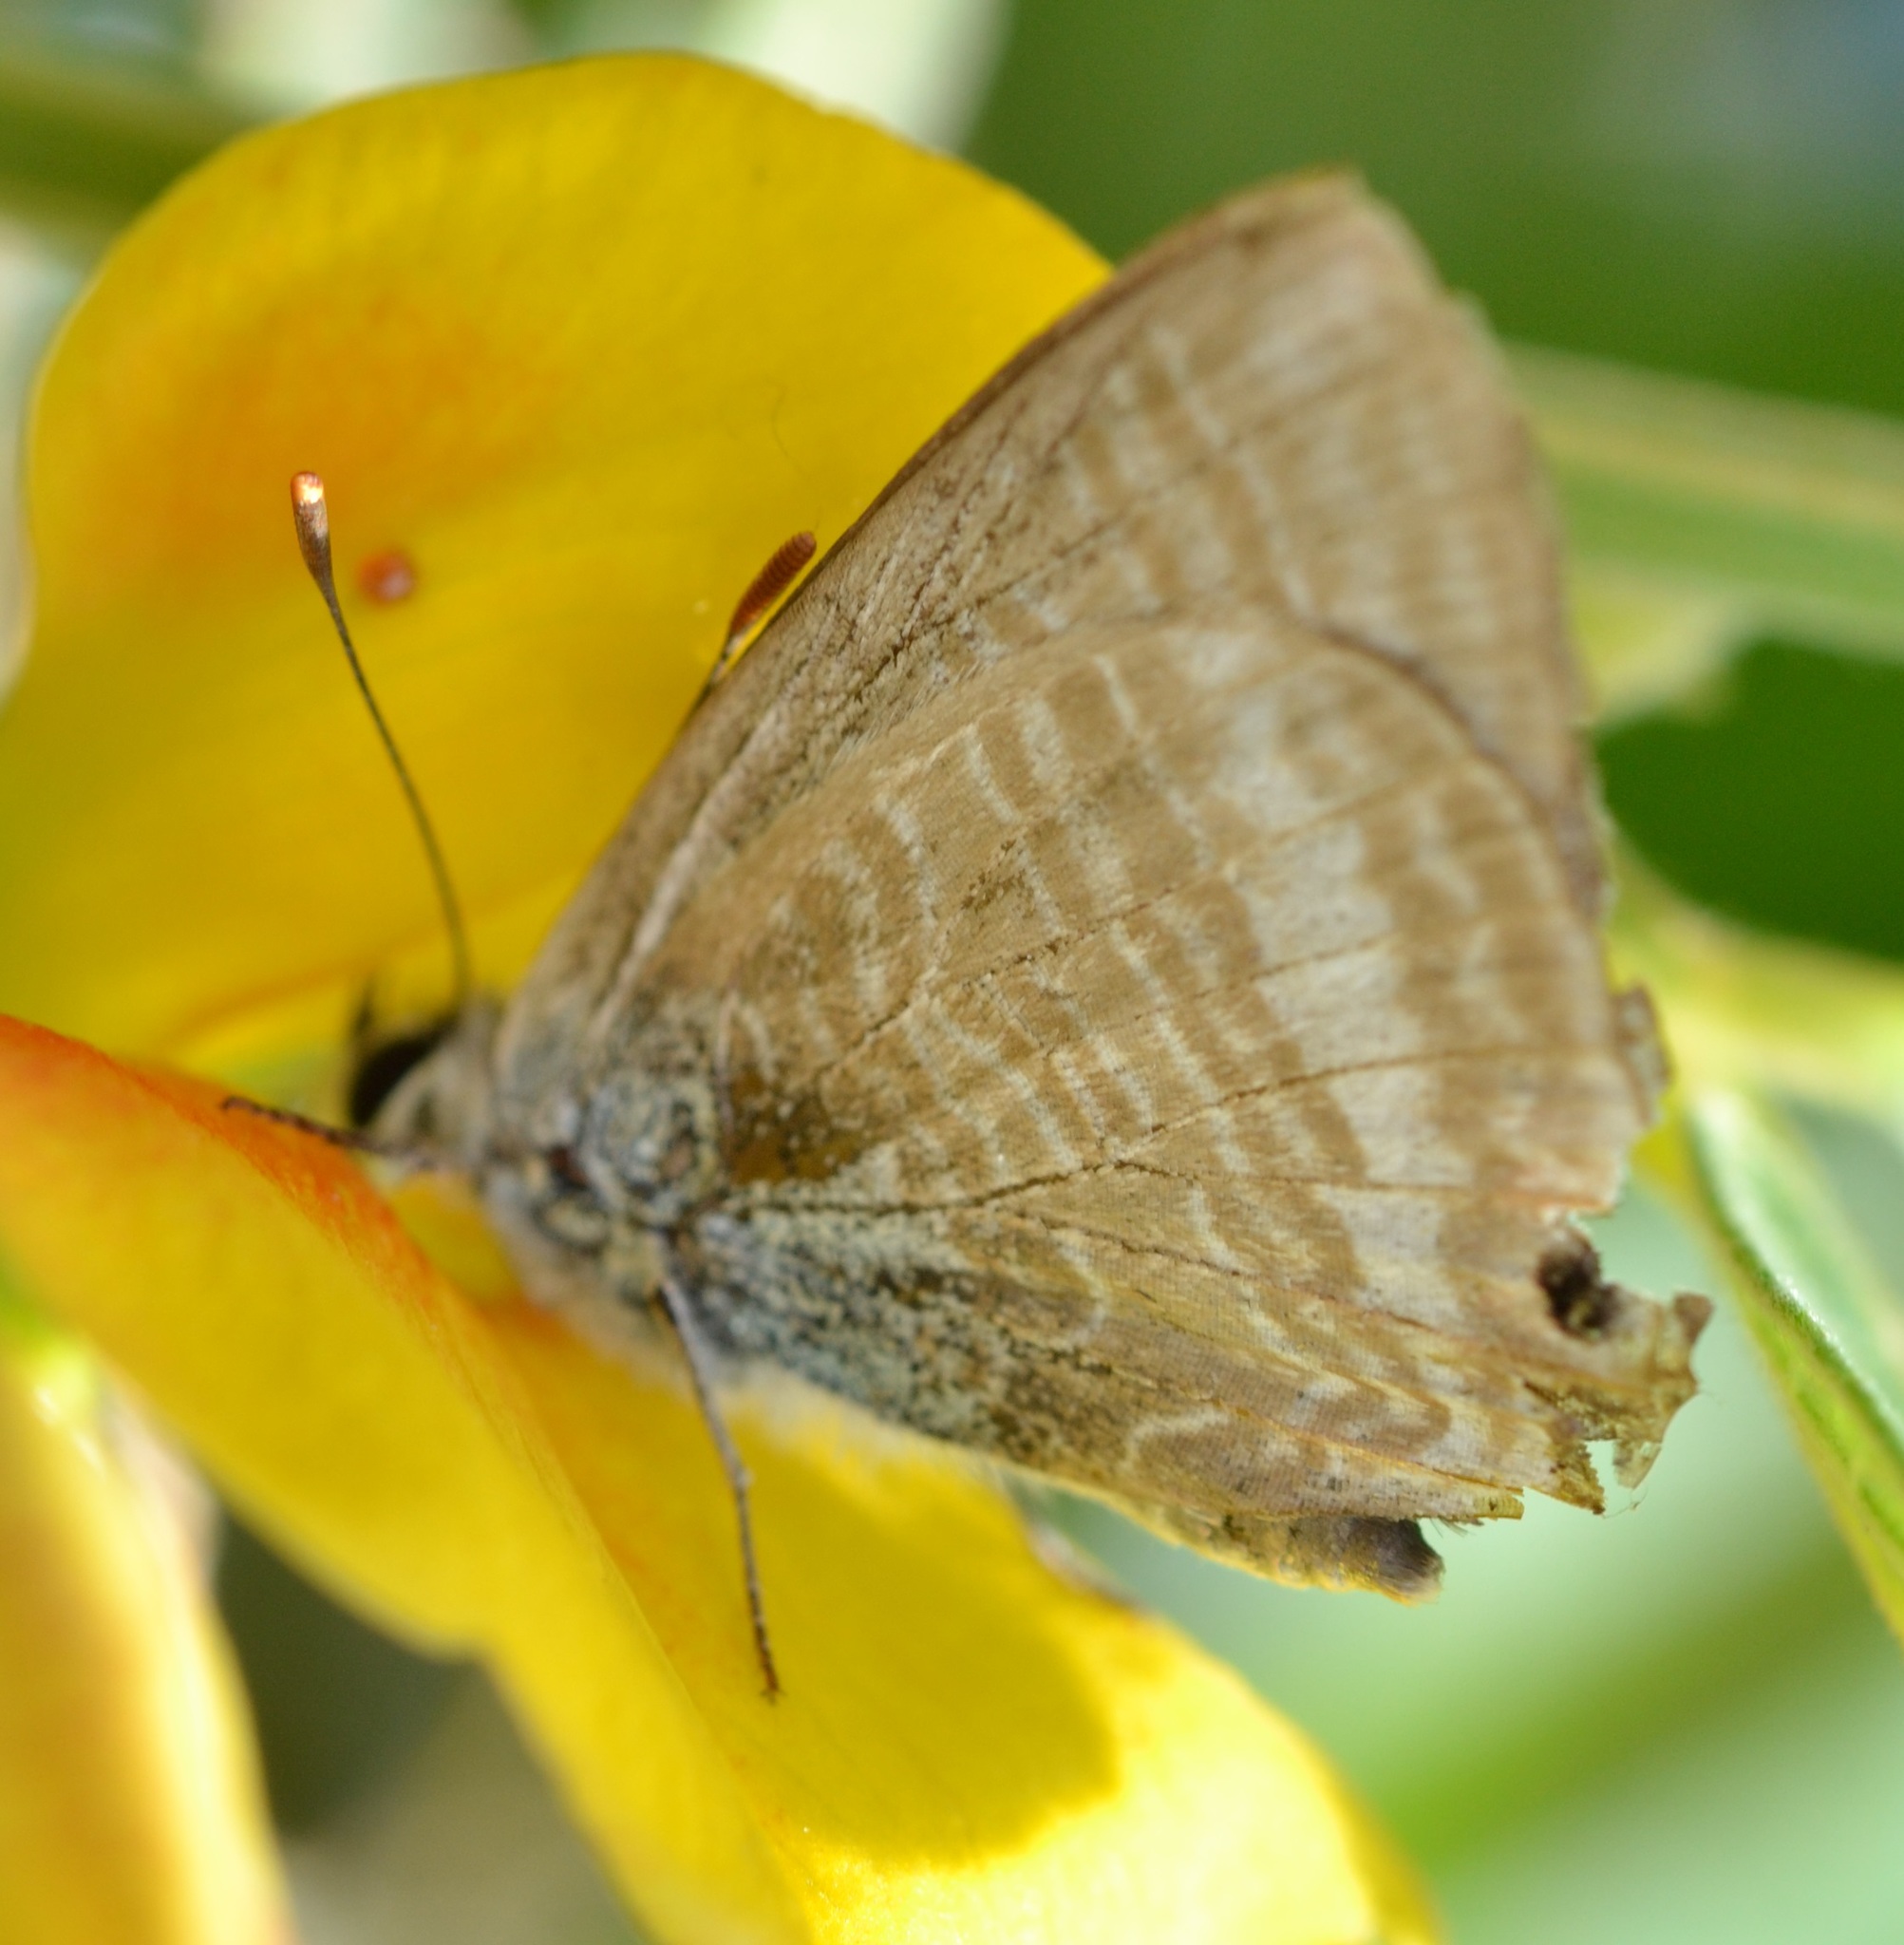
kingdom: Animalia
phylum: Arthropoda
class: Insecta
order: Lepidoptera
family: Lycaenidae
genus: Lampides
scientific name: Lampides boeticus
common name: Long-tailed blue
